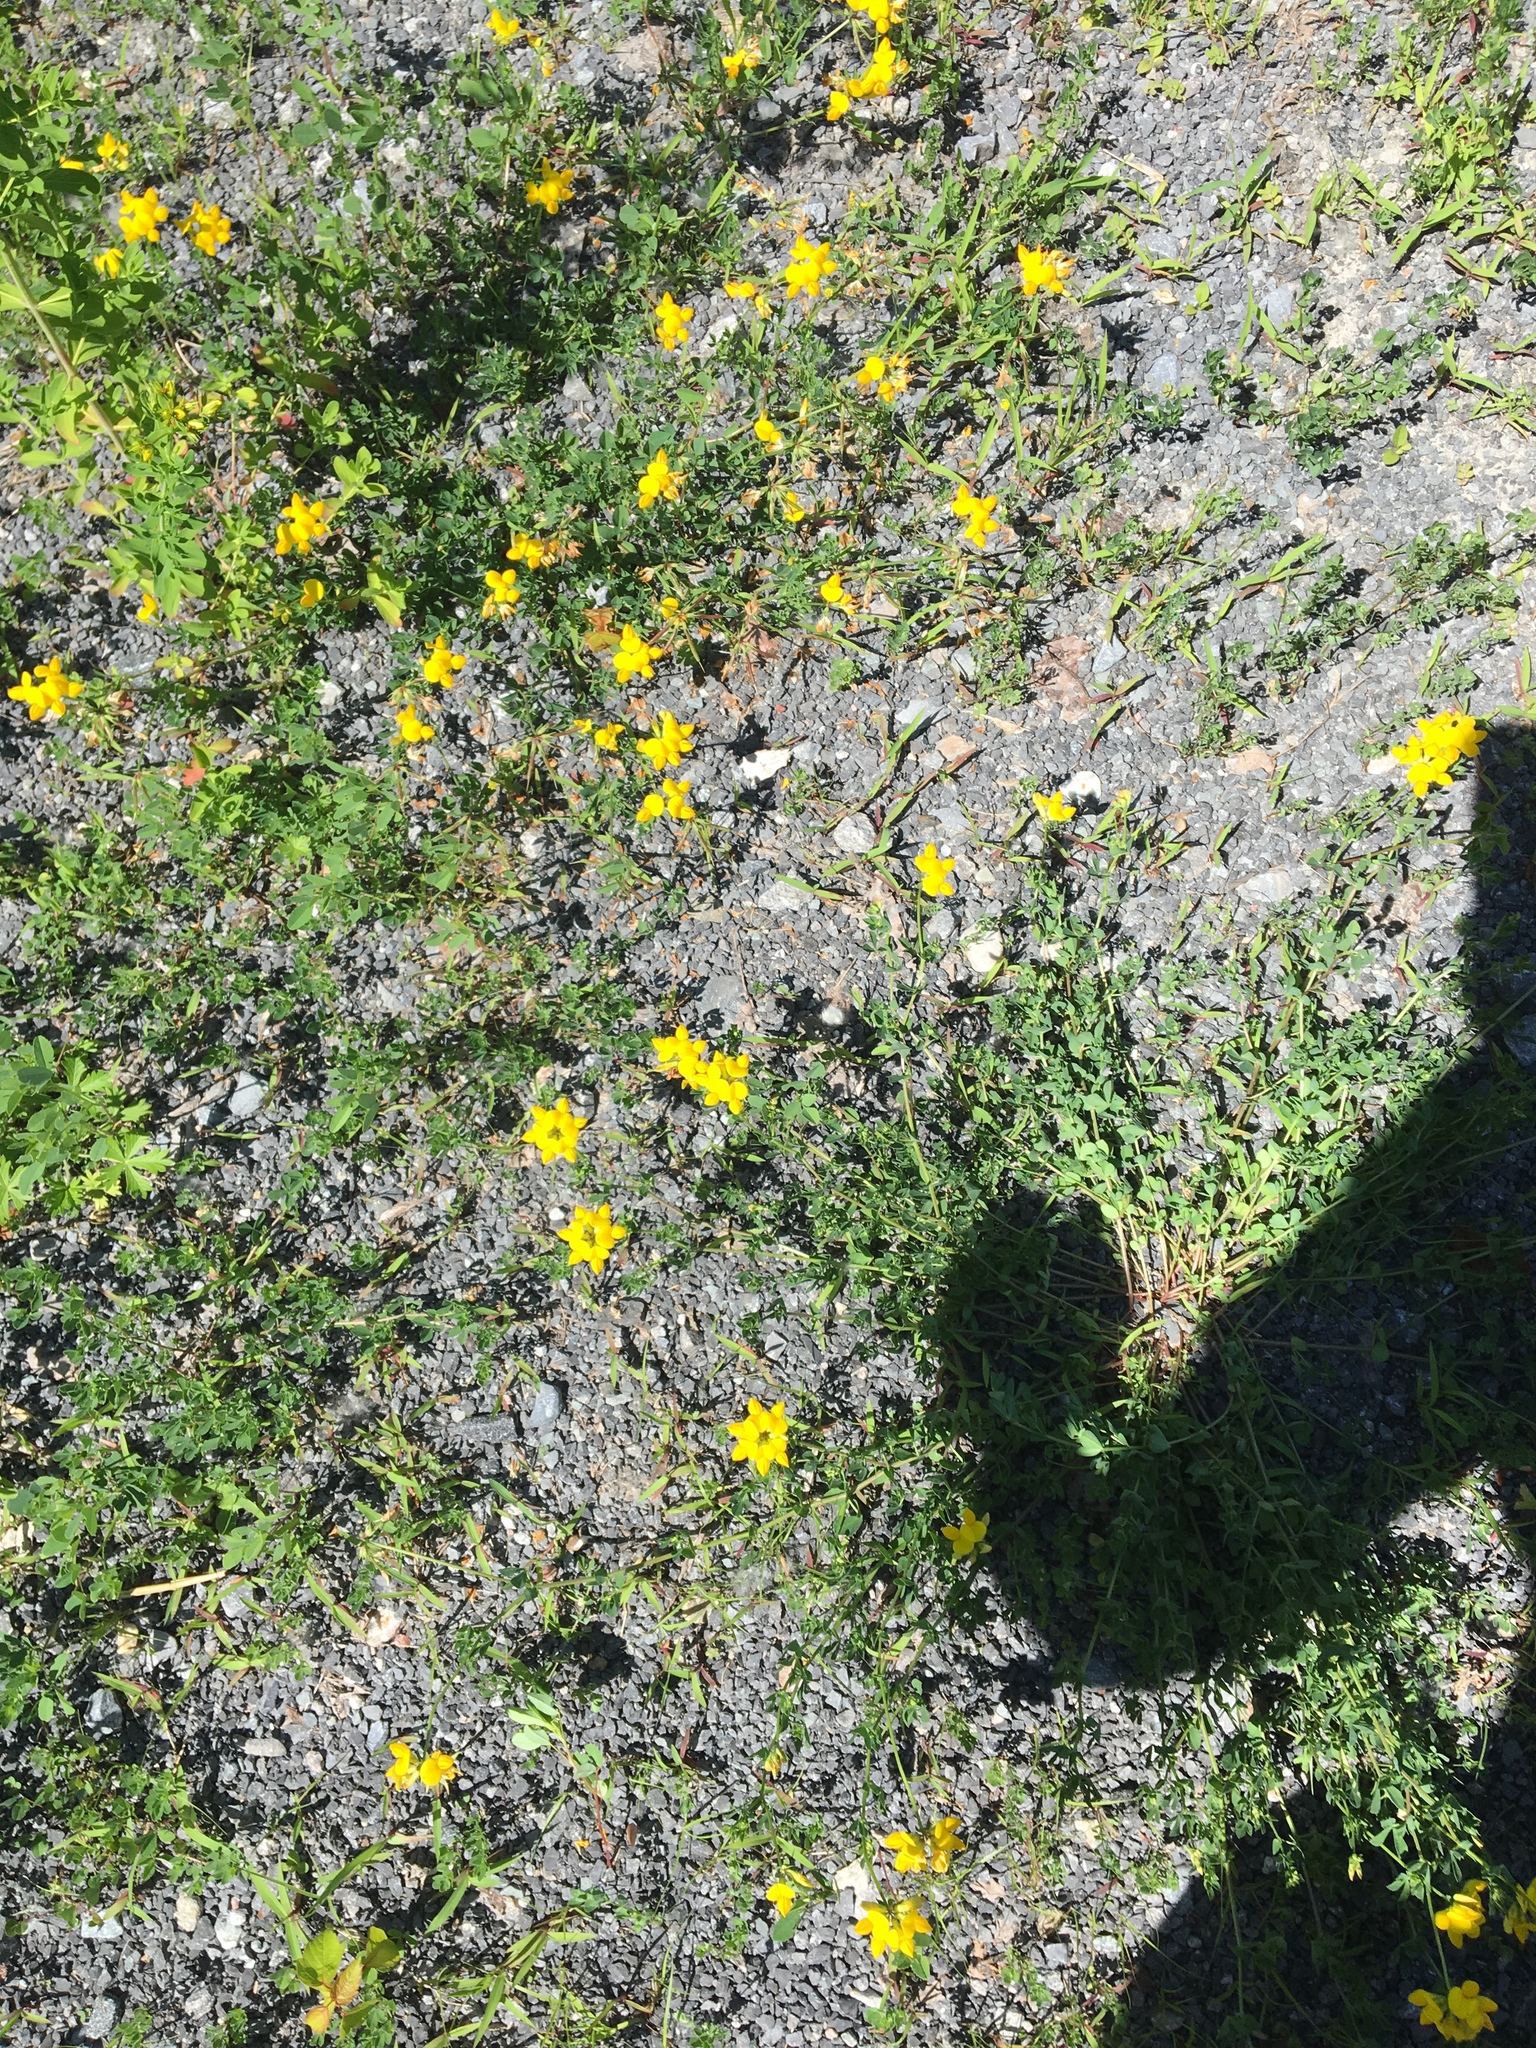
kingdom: Plantae
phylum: Tracheophyta
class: Magnoliopsida
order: Fabales
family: Fabaceae
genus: Lotus
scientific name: Lotus corniculatus
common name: Common bird's-foot-trefoil
